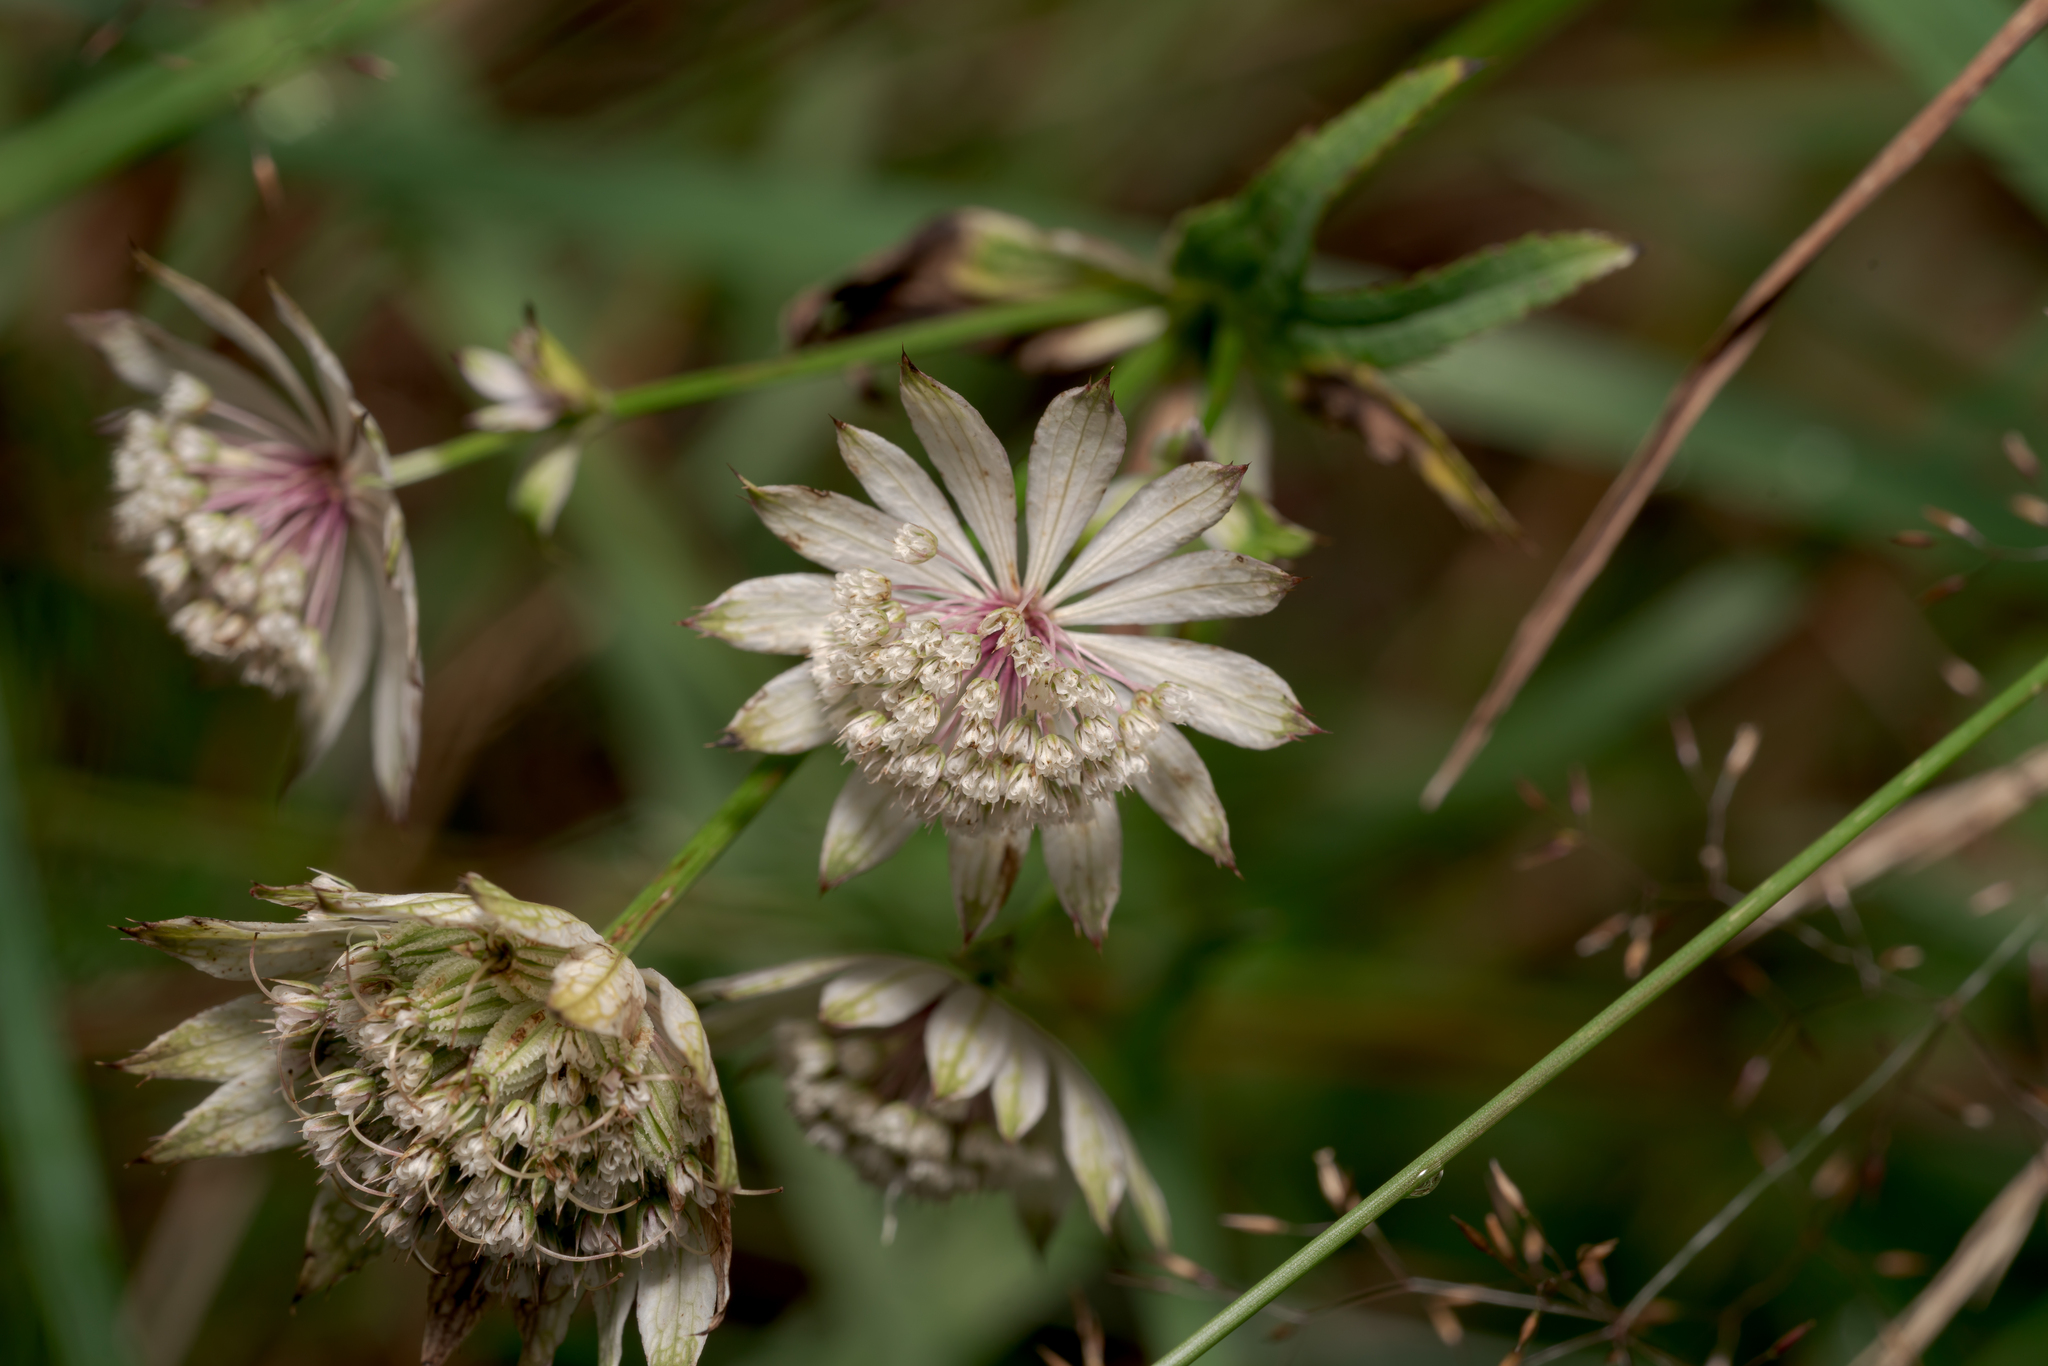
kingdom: Plantae
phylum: Tracheophyta
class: Magnoliopsida
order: Apiales
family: Apiaceae
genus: Astrantia
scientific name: Astrantia major
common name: Greater masterwort
